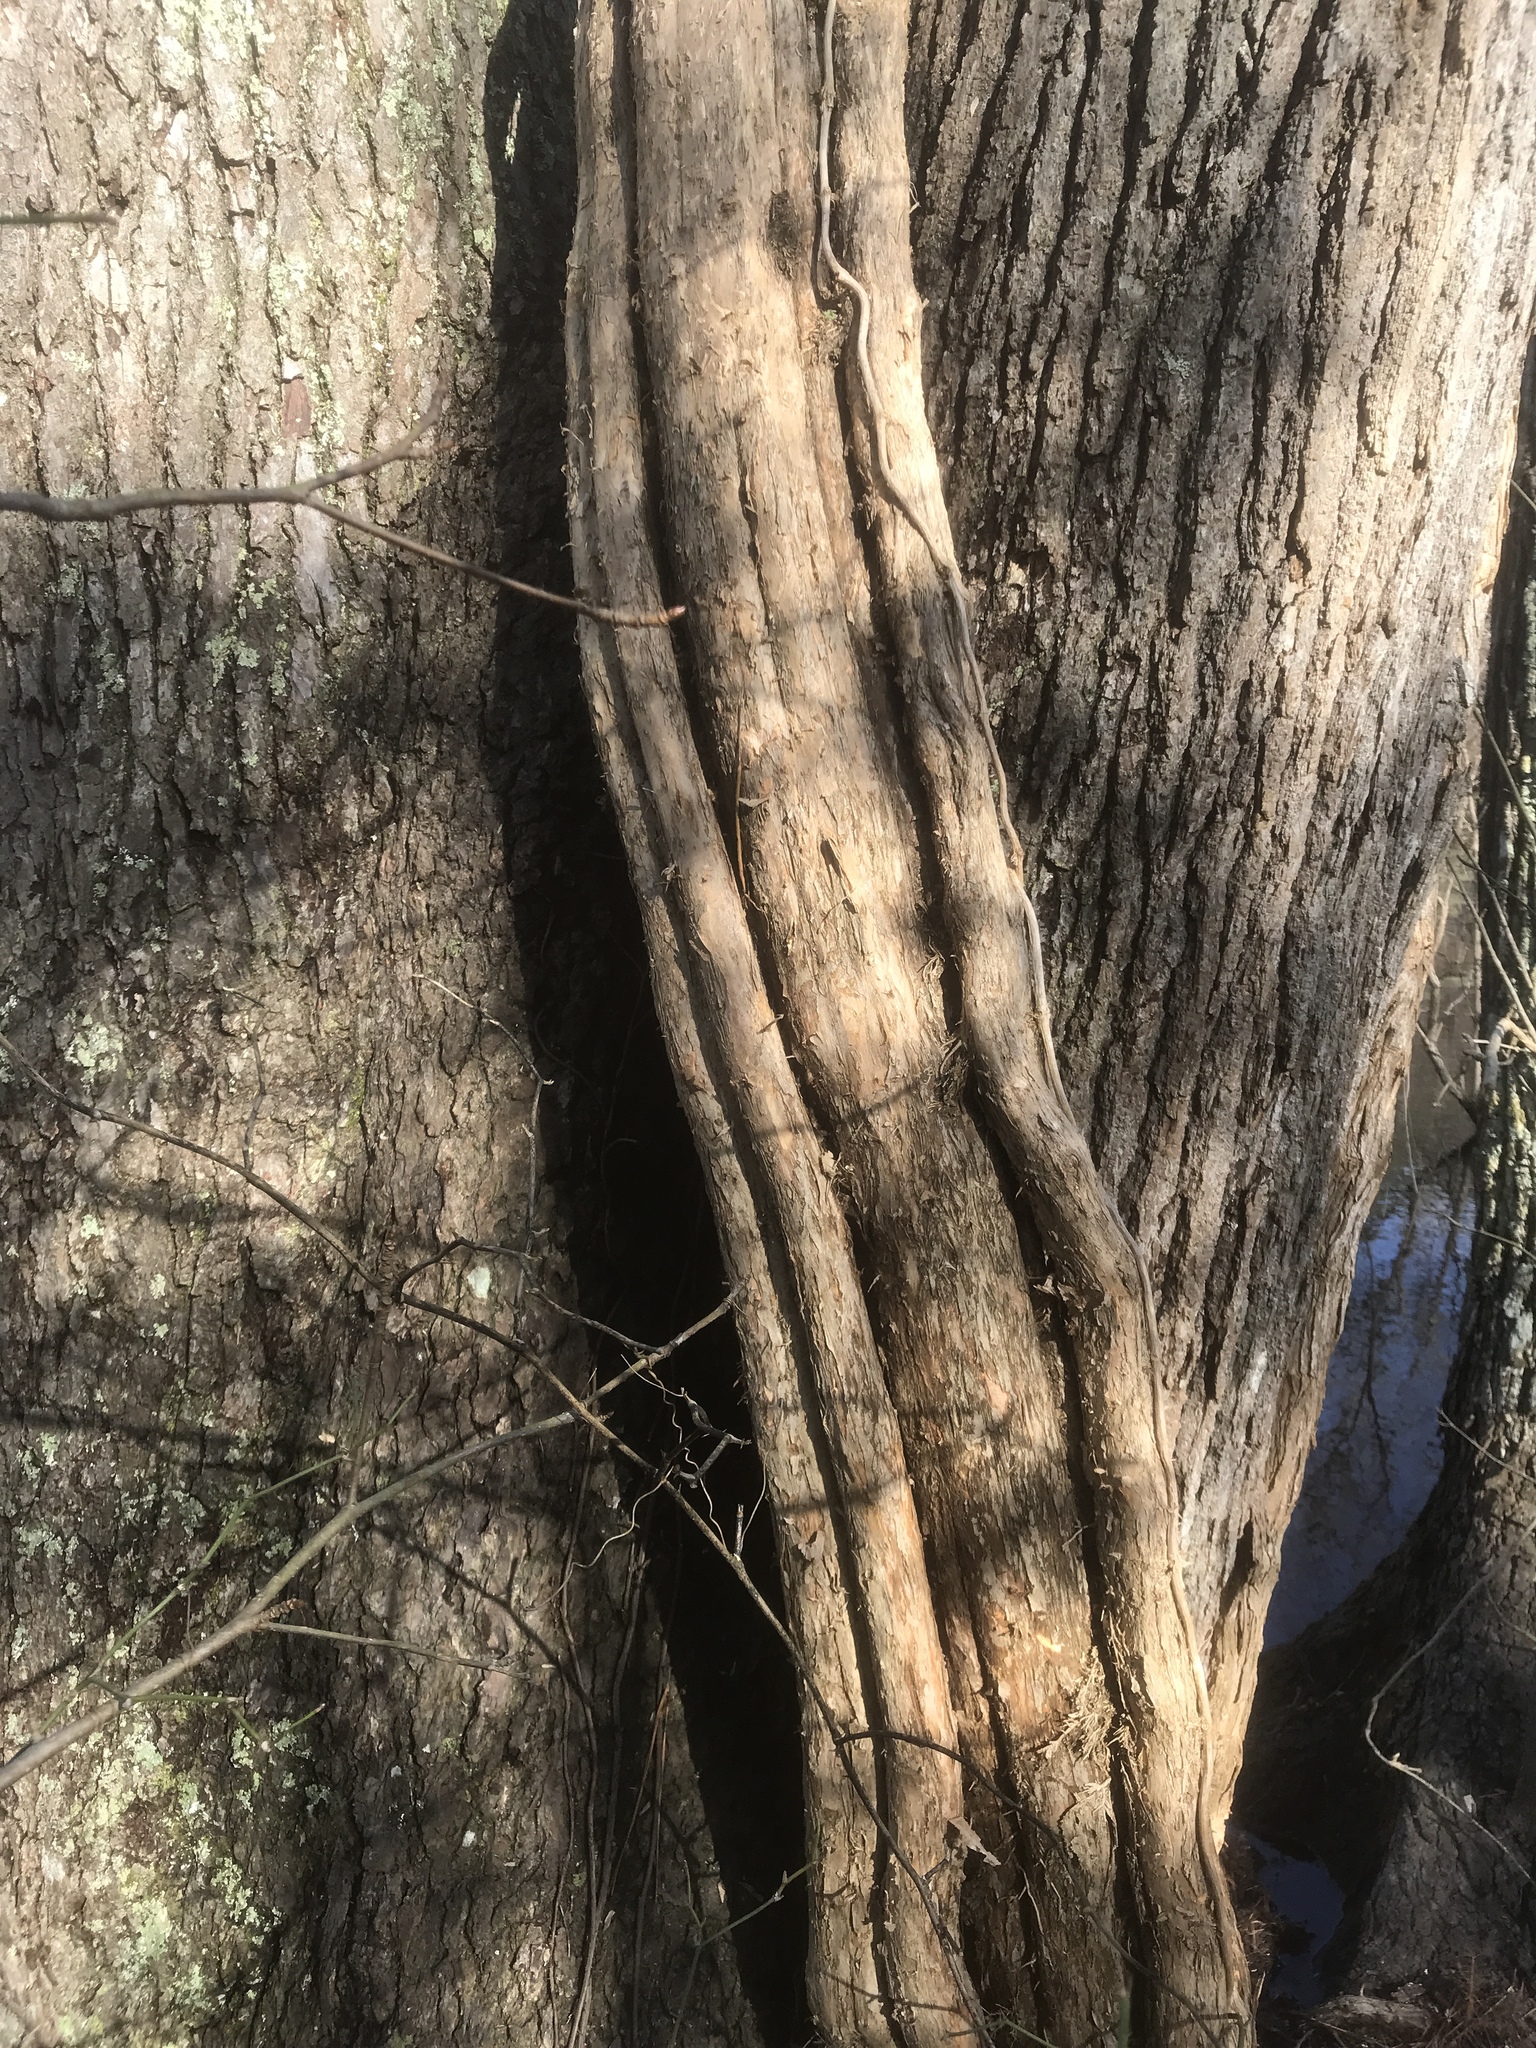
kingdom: Plantae
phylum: Tracheophyta
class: Magnoliopsida
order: Lamiales
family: Bignoniaceae
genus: Campsis
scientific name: Campsis radicans
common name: Trumpet-creeper
